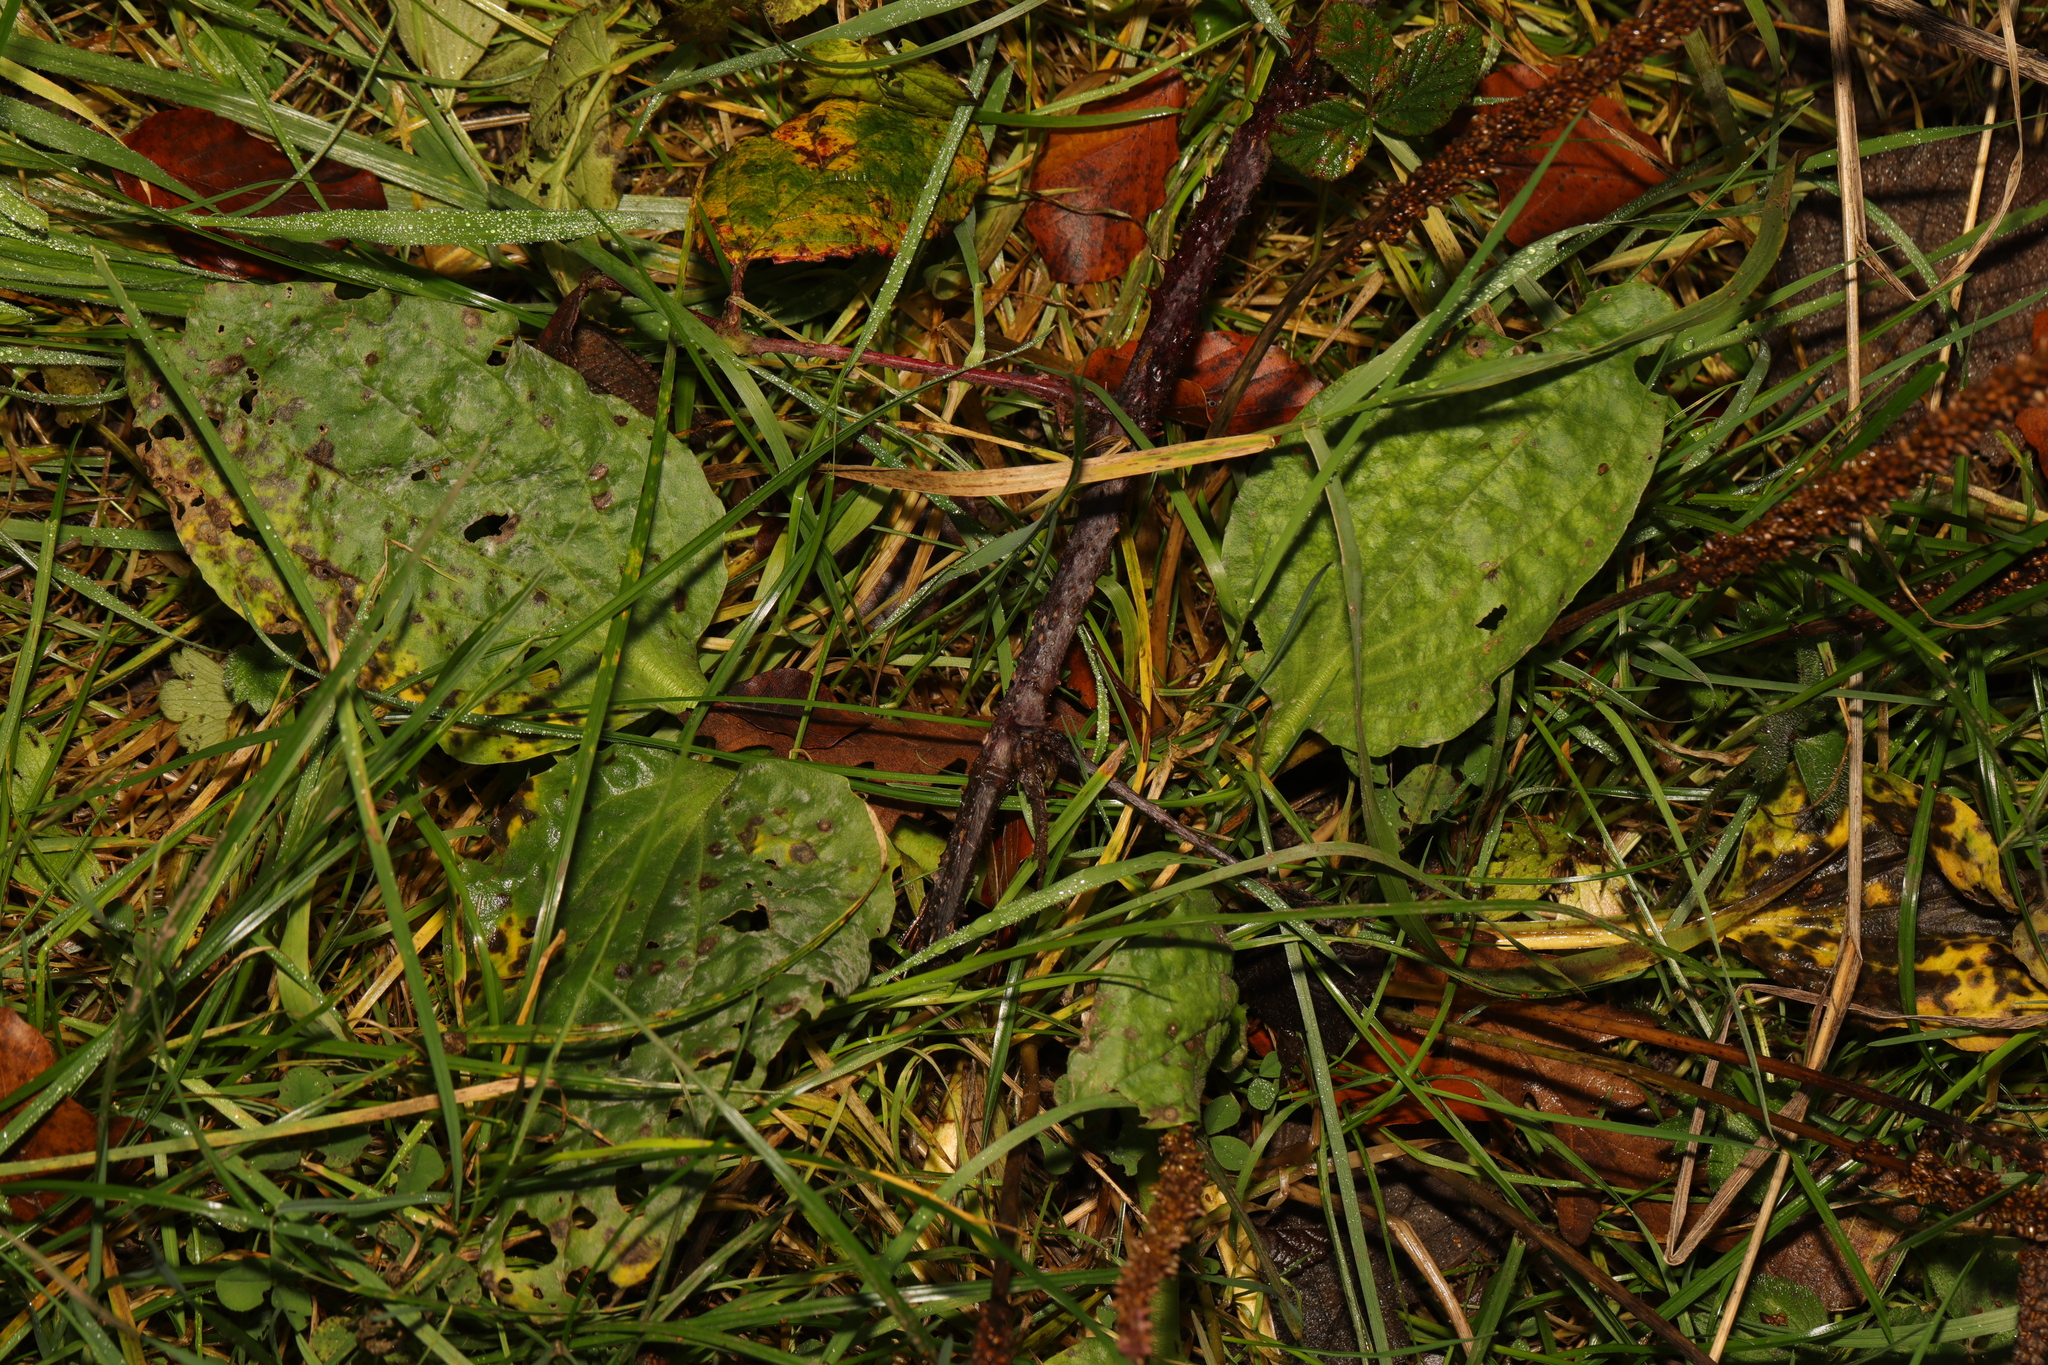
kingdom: Plantae
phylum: Tracheophyta
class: Magnoliopsida
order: Lamiales
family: Plantaginaceae
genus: Plantago
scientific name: Plantago major
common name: Common plantain
